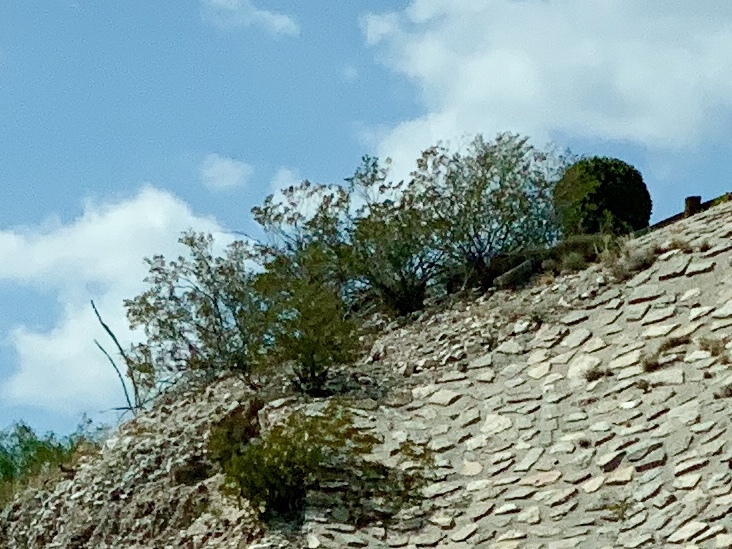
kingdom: Plantae
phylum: Tracheophyta
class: Magnoliopsida
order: Zygophyllales
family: Zygophyllaceae
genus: Larrea
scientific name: Larrea tridentata
